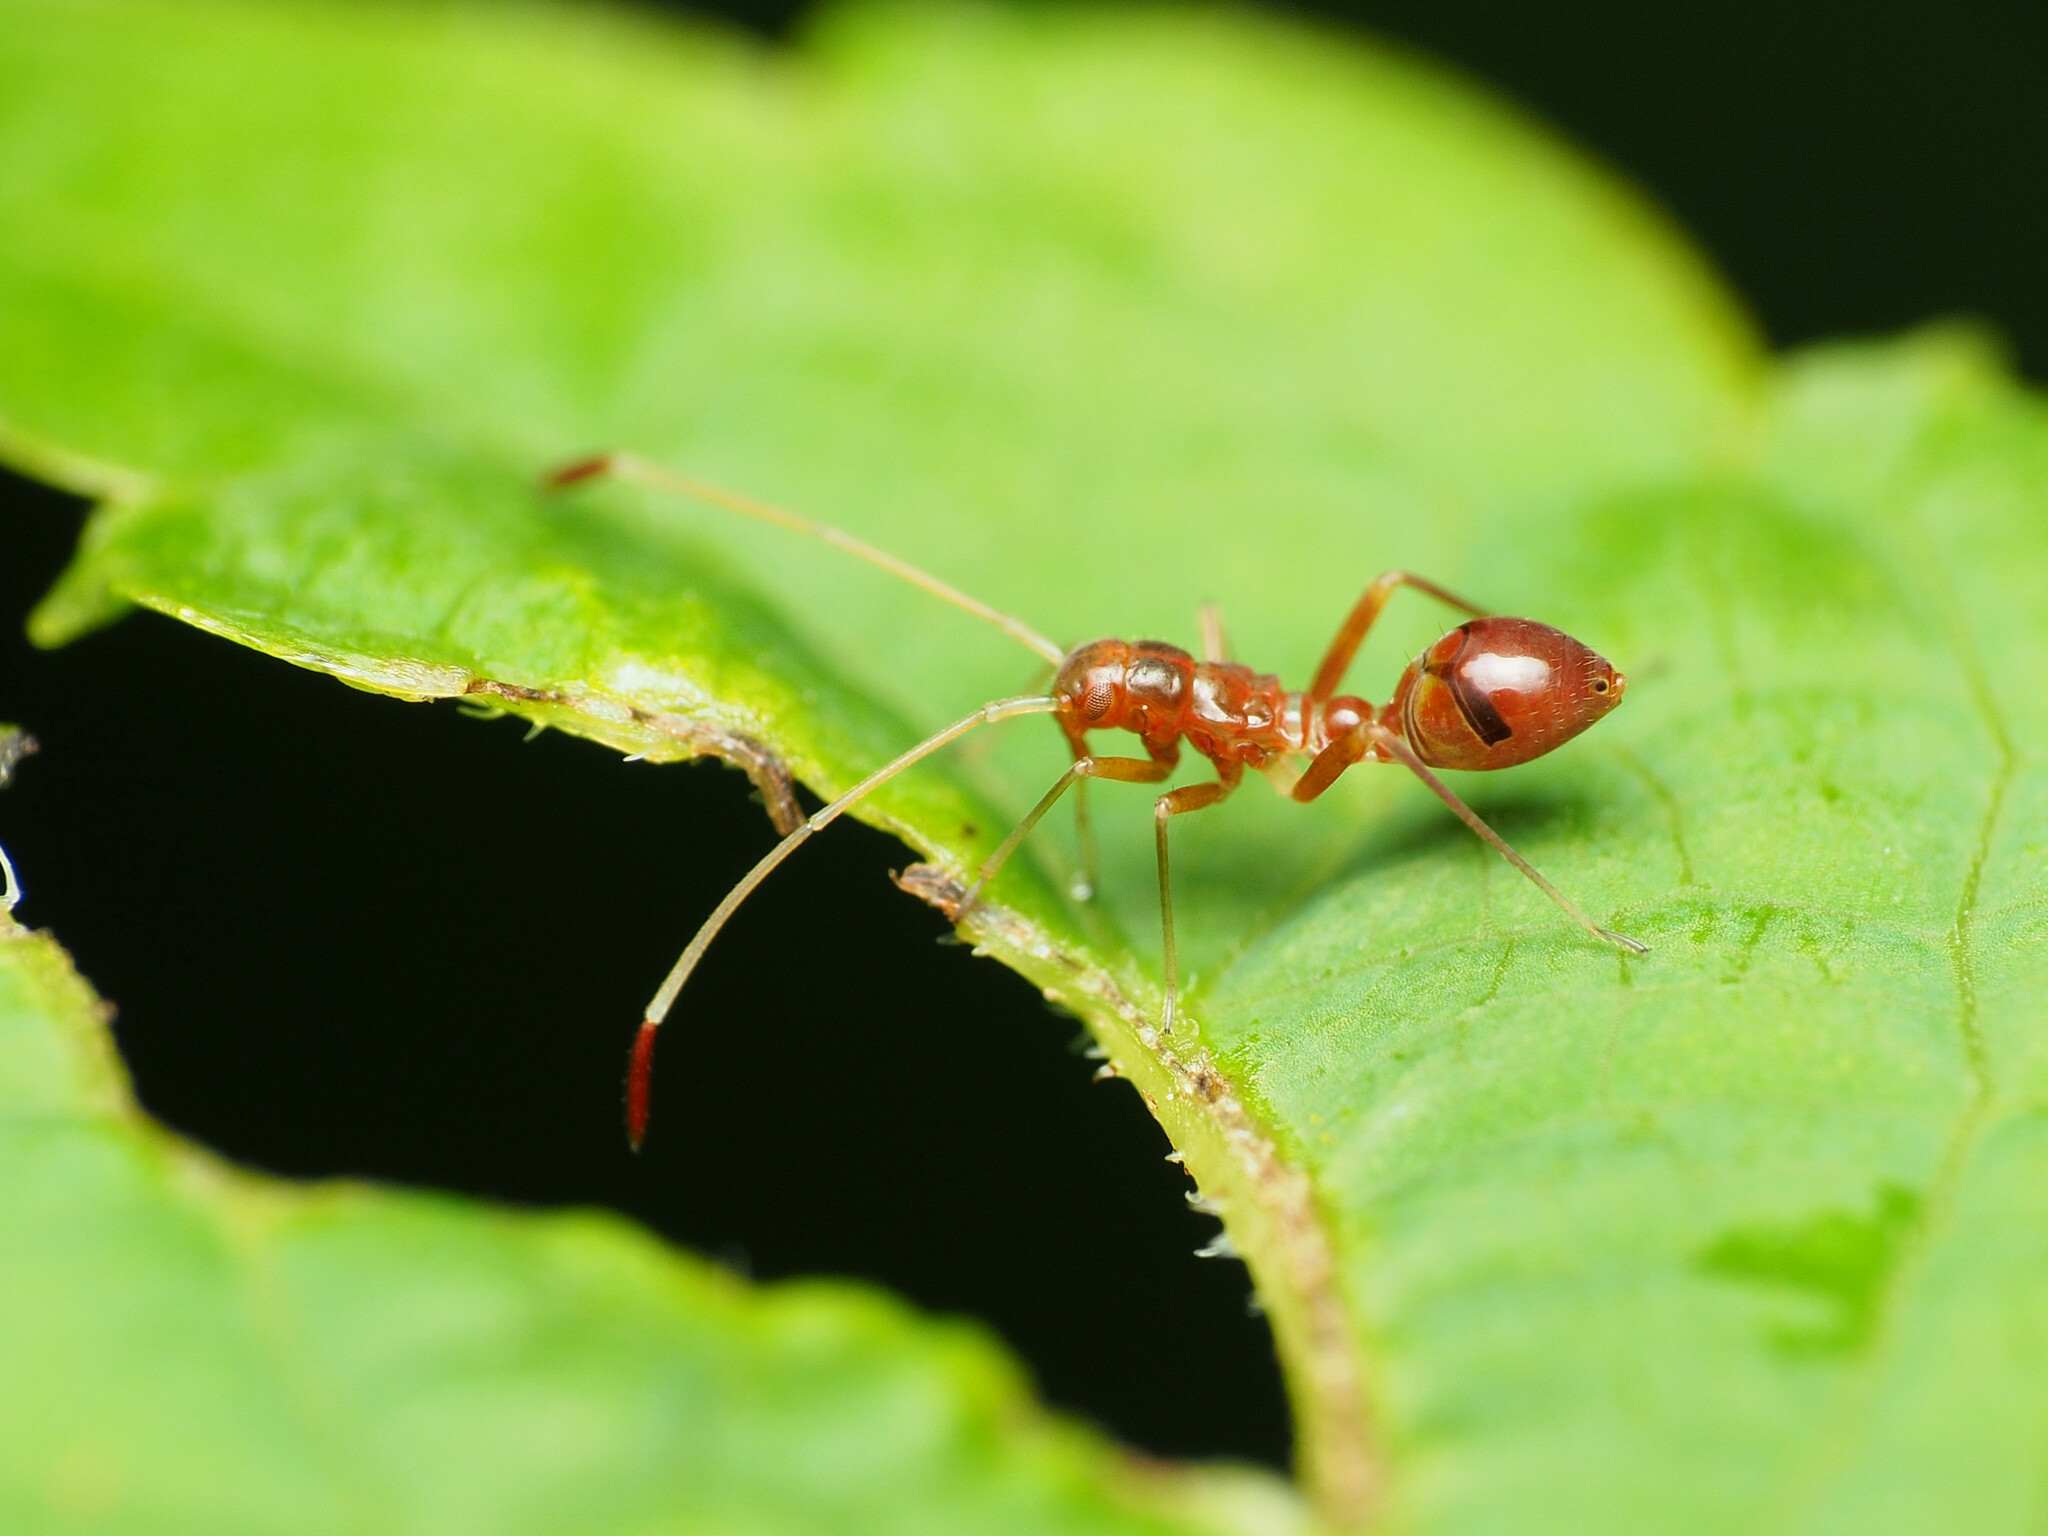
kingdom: Animalia
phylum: Arthropoda
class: Insecta
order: Hemiptera
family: Miridae
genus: Paraxenetus
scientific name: Paraxenetus guttulatus
